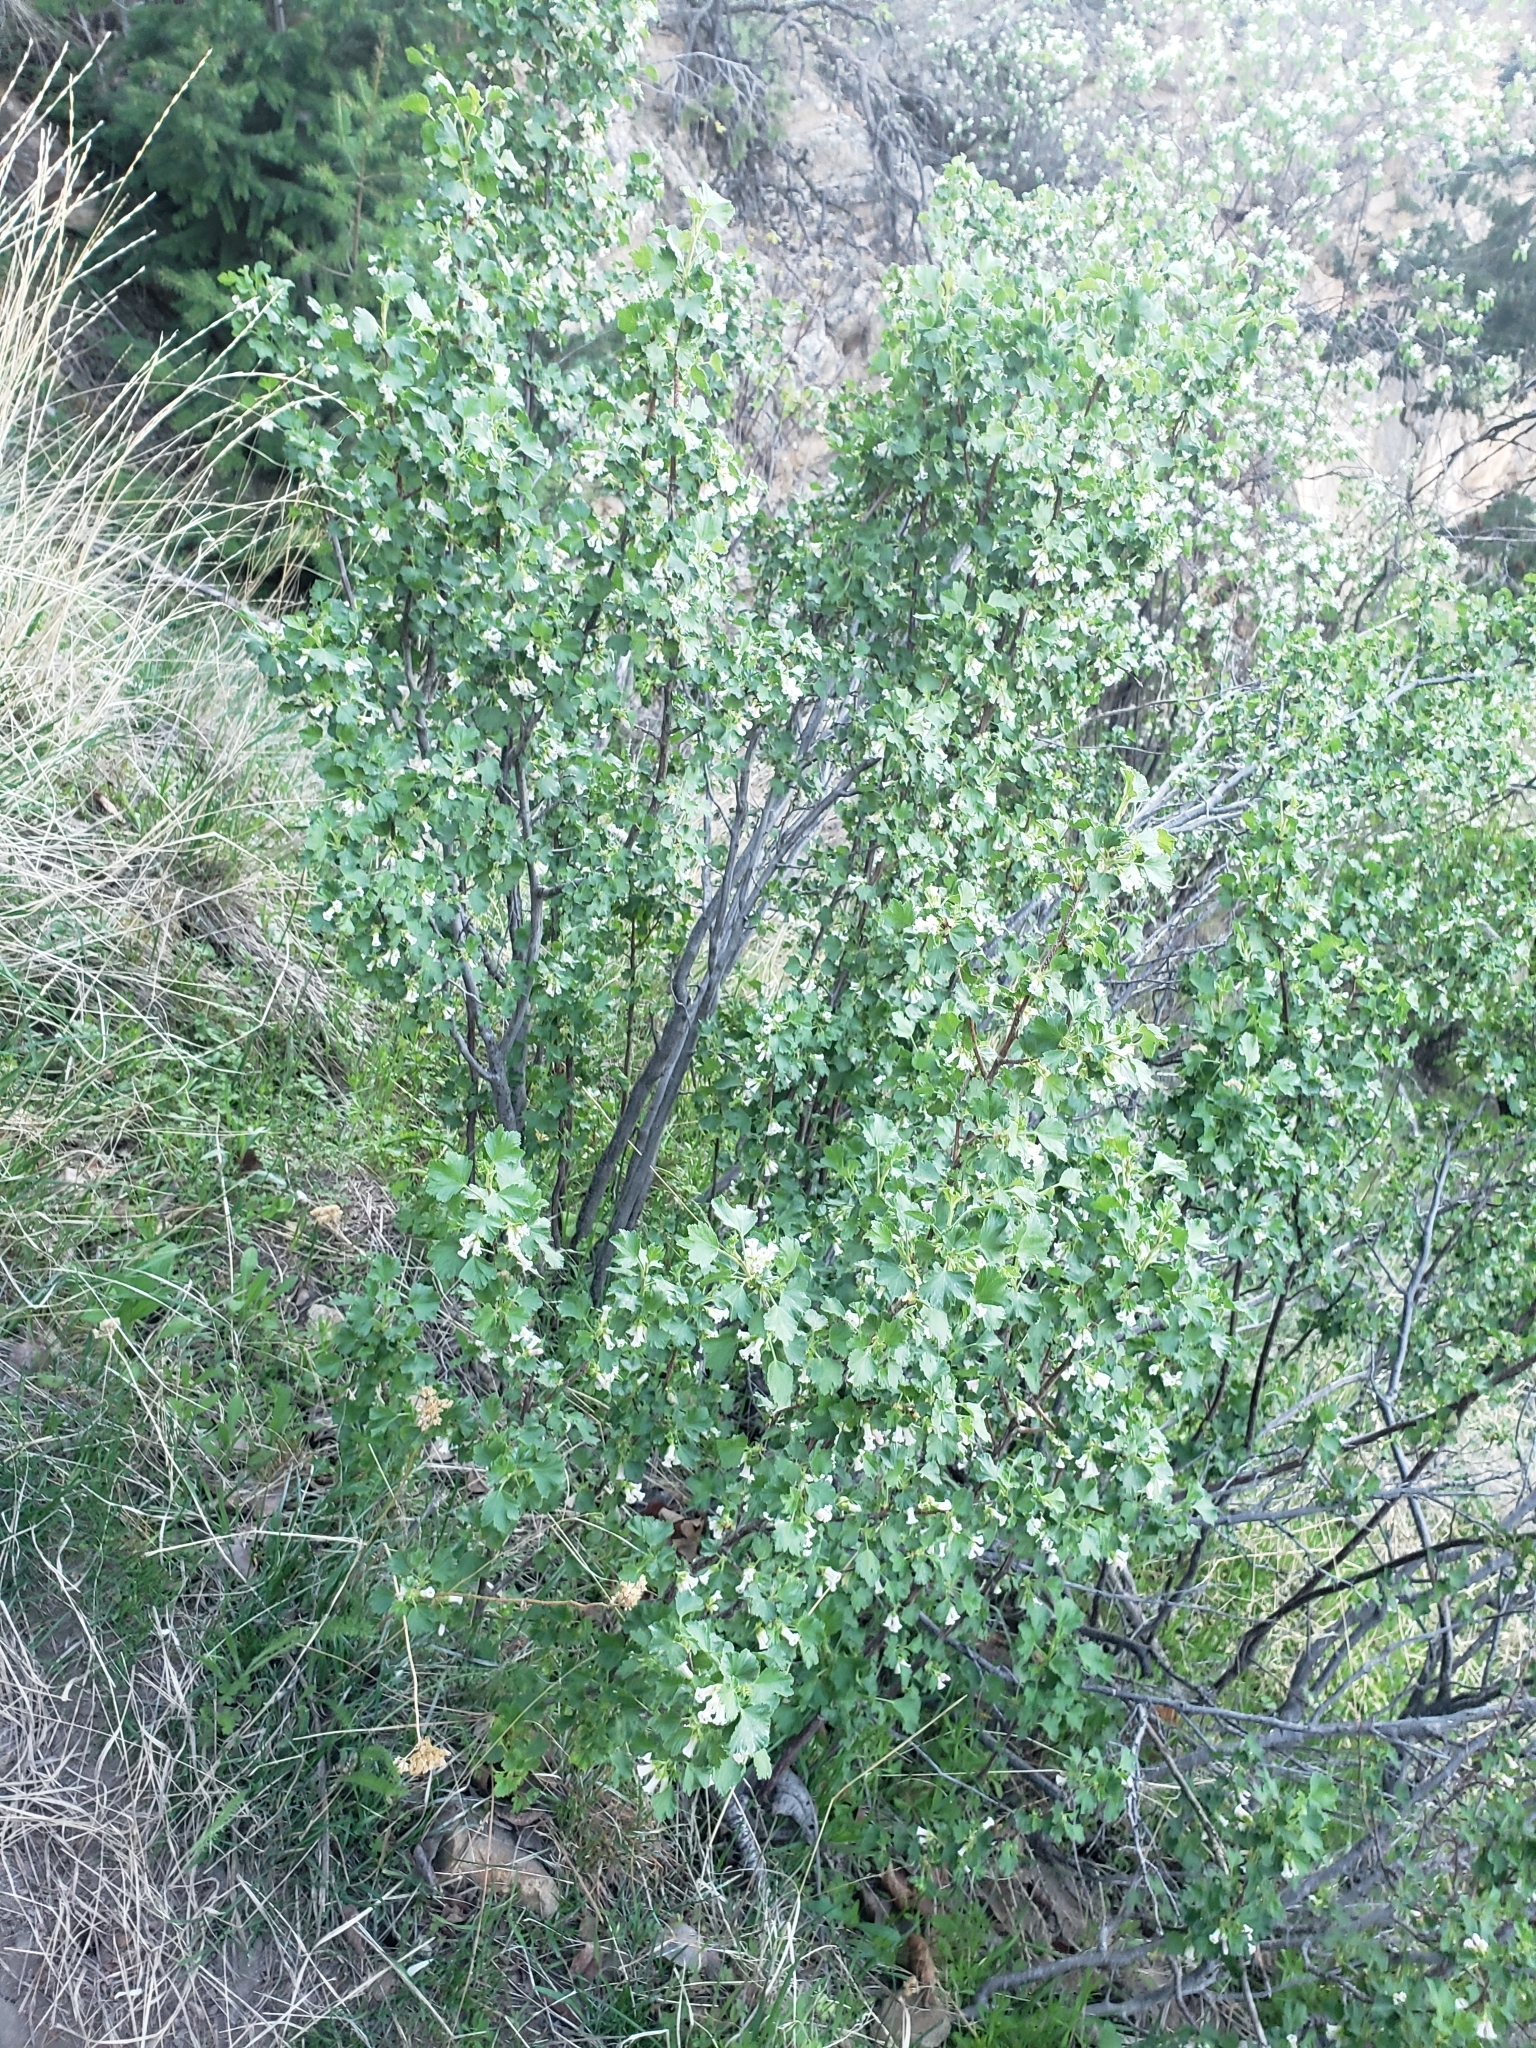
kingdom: Plantae
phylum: Tracheophyta
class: Magnoliopsida
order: Saxifragales
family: Grossulariaceae
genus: Ribes
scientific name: Ribes cereum
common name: Wax currant
